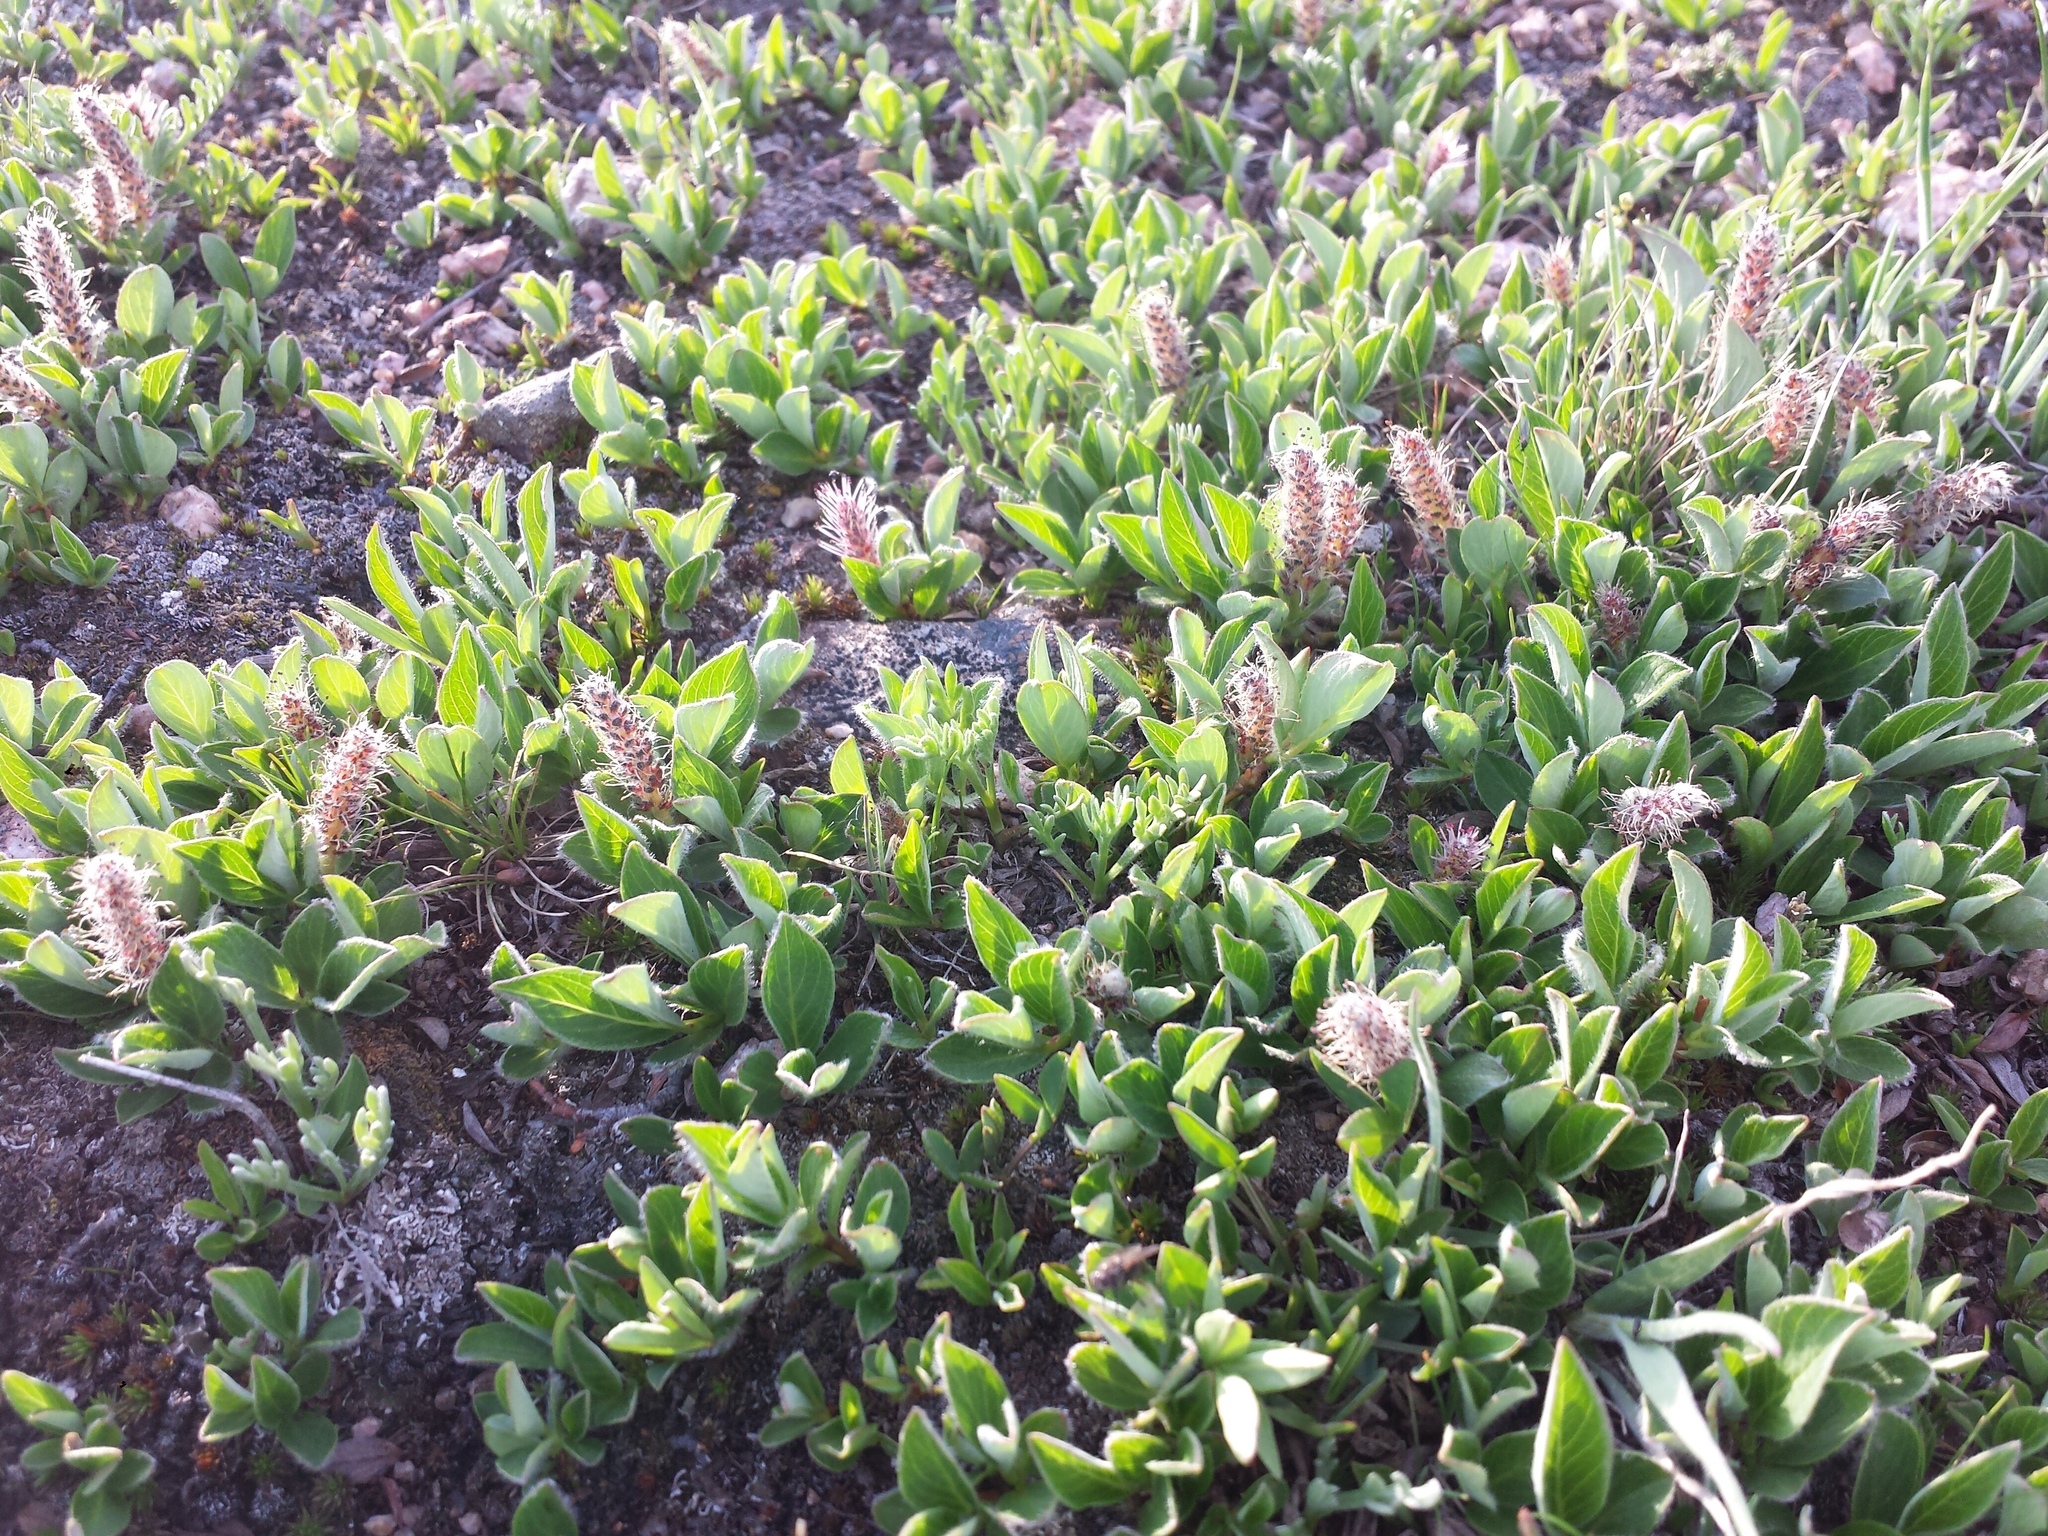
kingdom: Plantae
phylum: Tracheophyta
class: Magnoliopsida
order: Malpighiales
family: Salicaceae
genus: Salix
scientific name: Salix petrophila
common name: Rocky mountain willow
